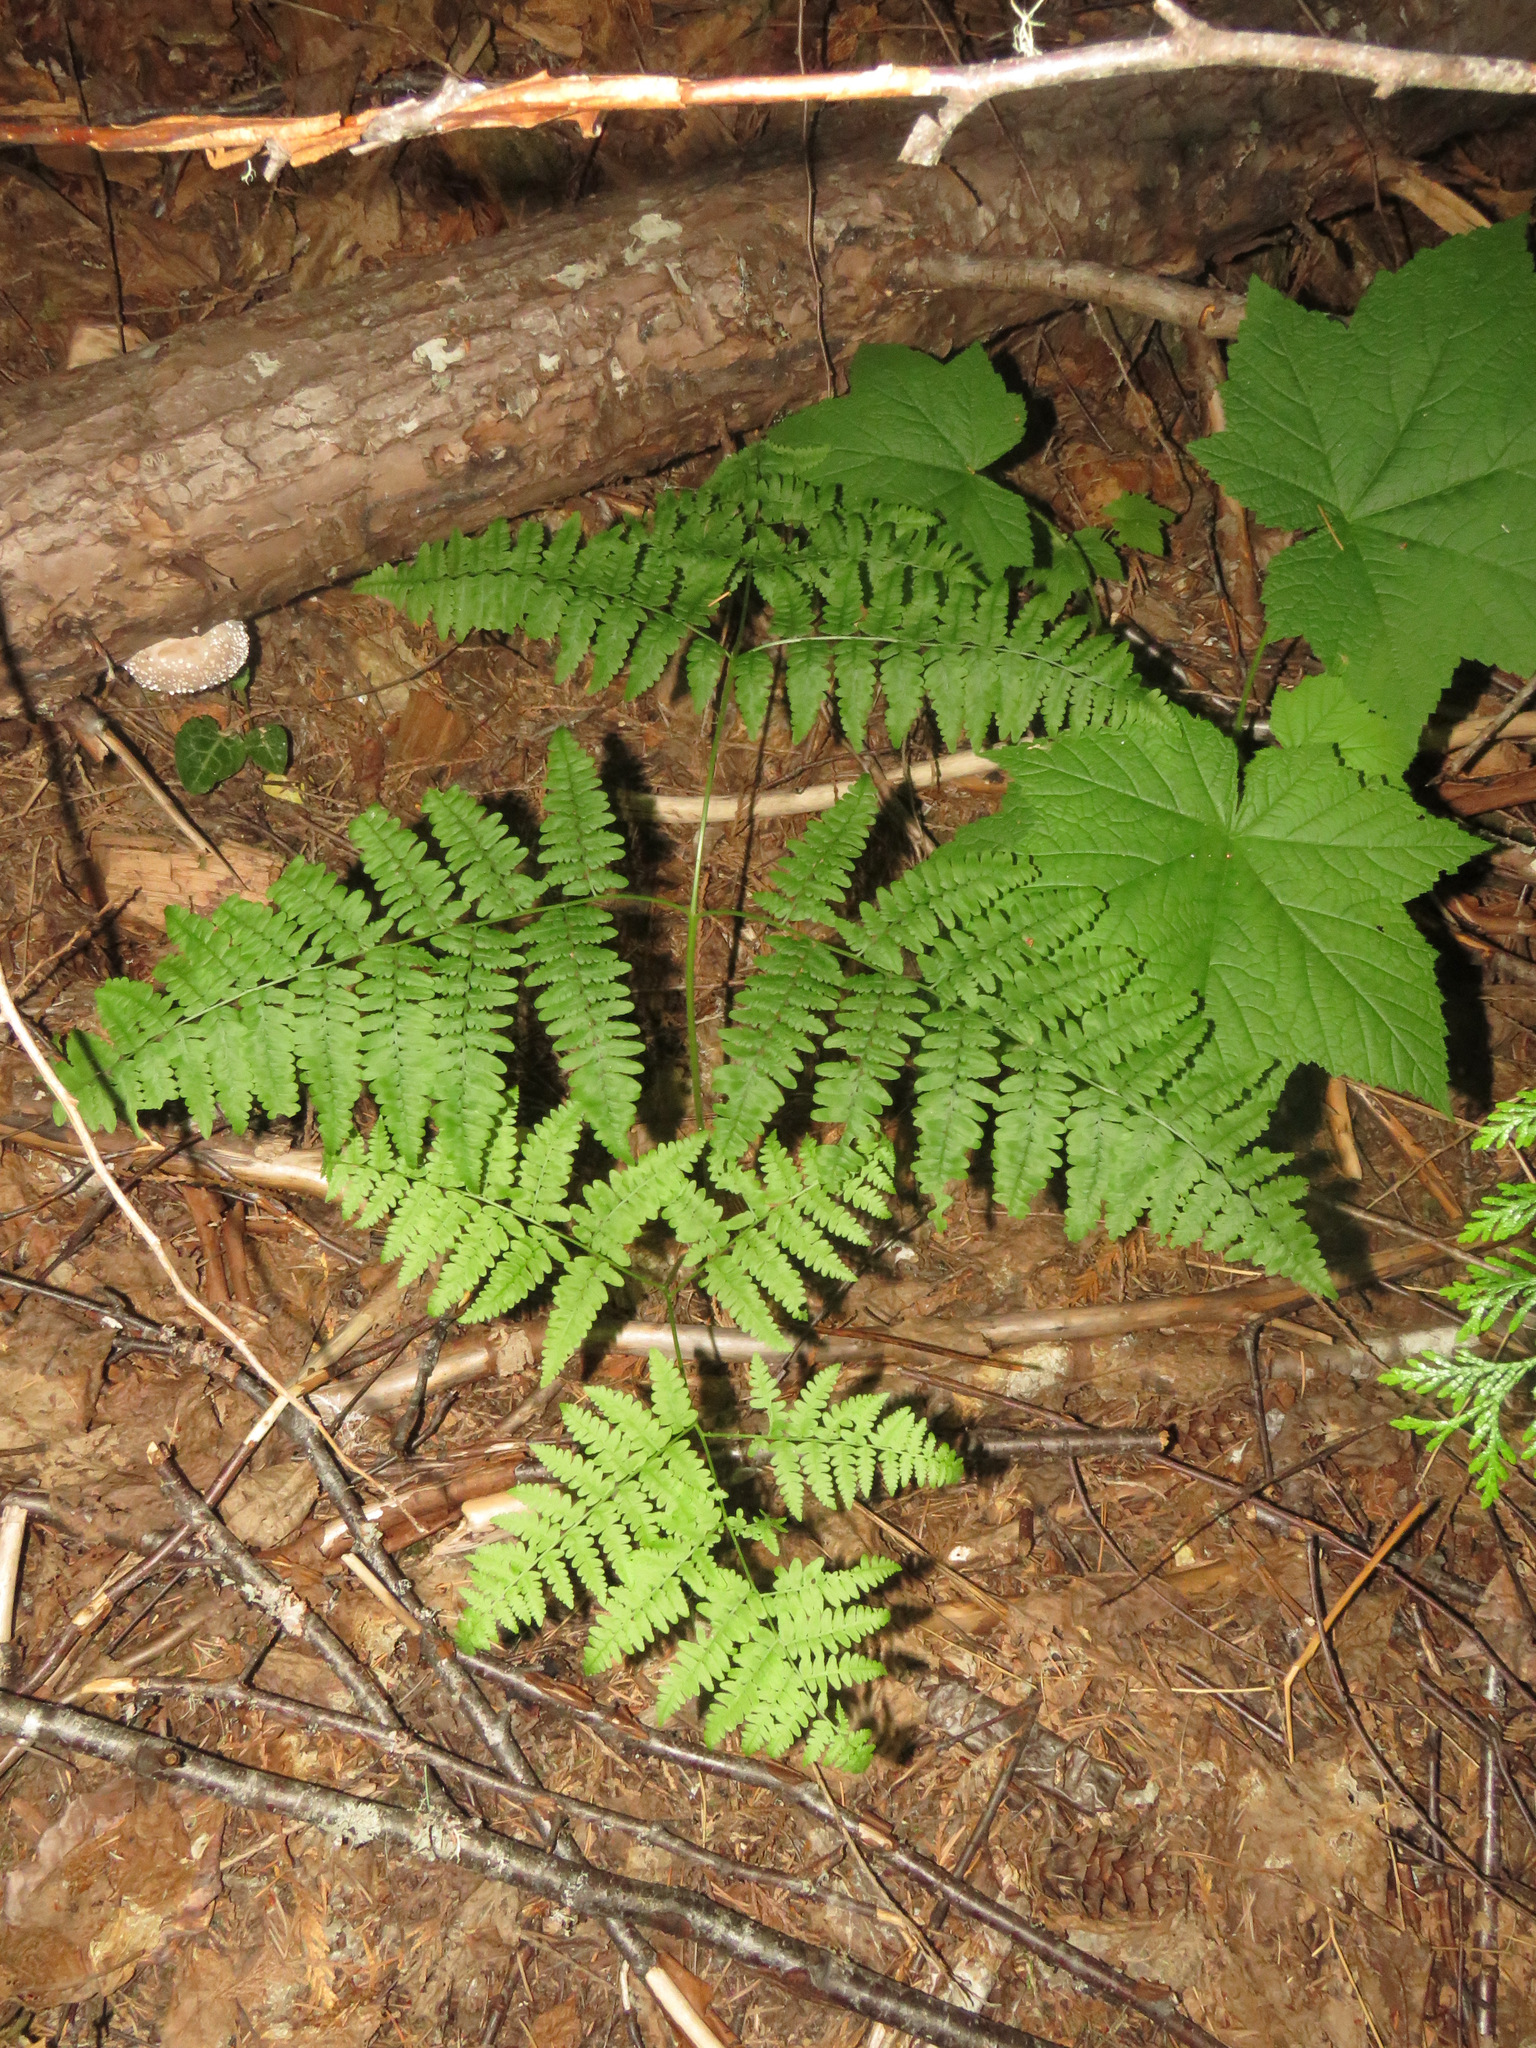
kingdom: Plantae
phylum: Tracheophyta
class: Polypodiopsida
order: Polypodiales
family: Dennstaedtiaceae
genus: Pteridium
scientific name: Pteridium aquilinum
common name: Bracken
